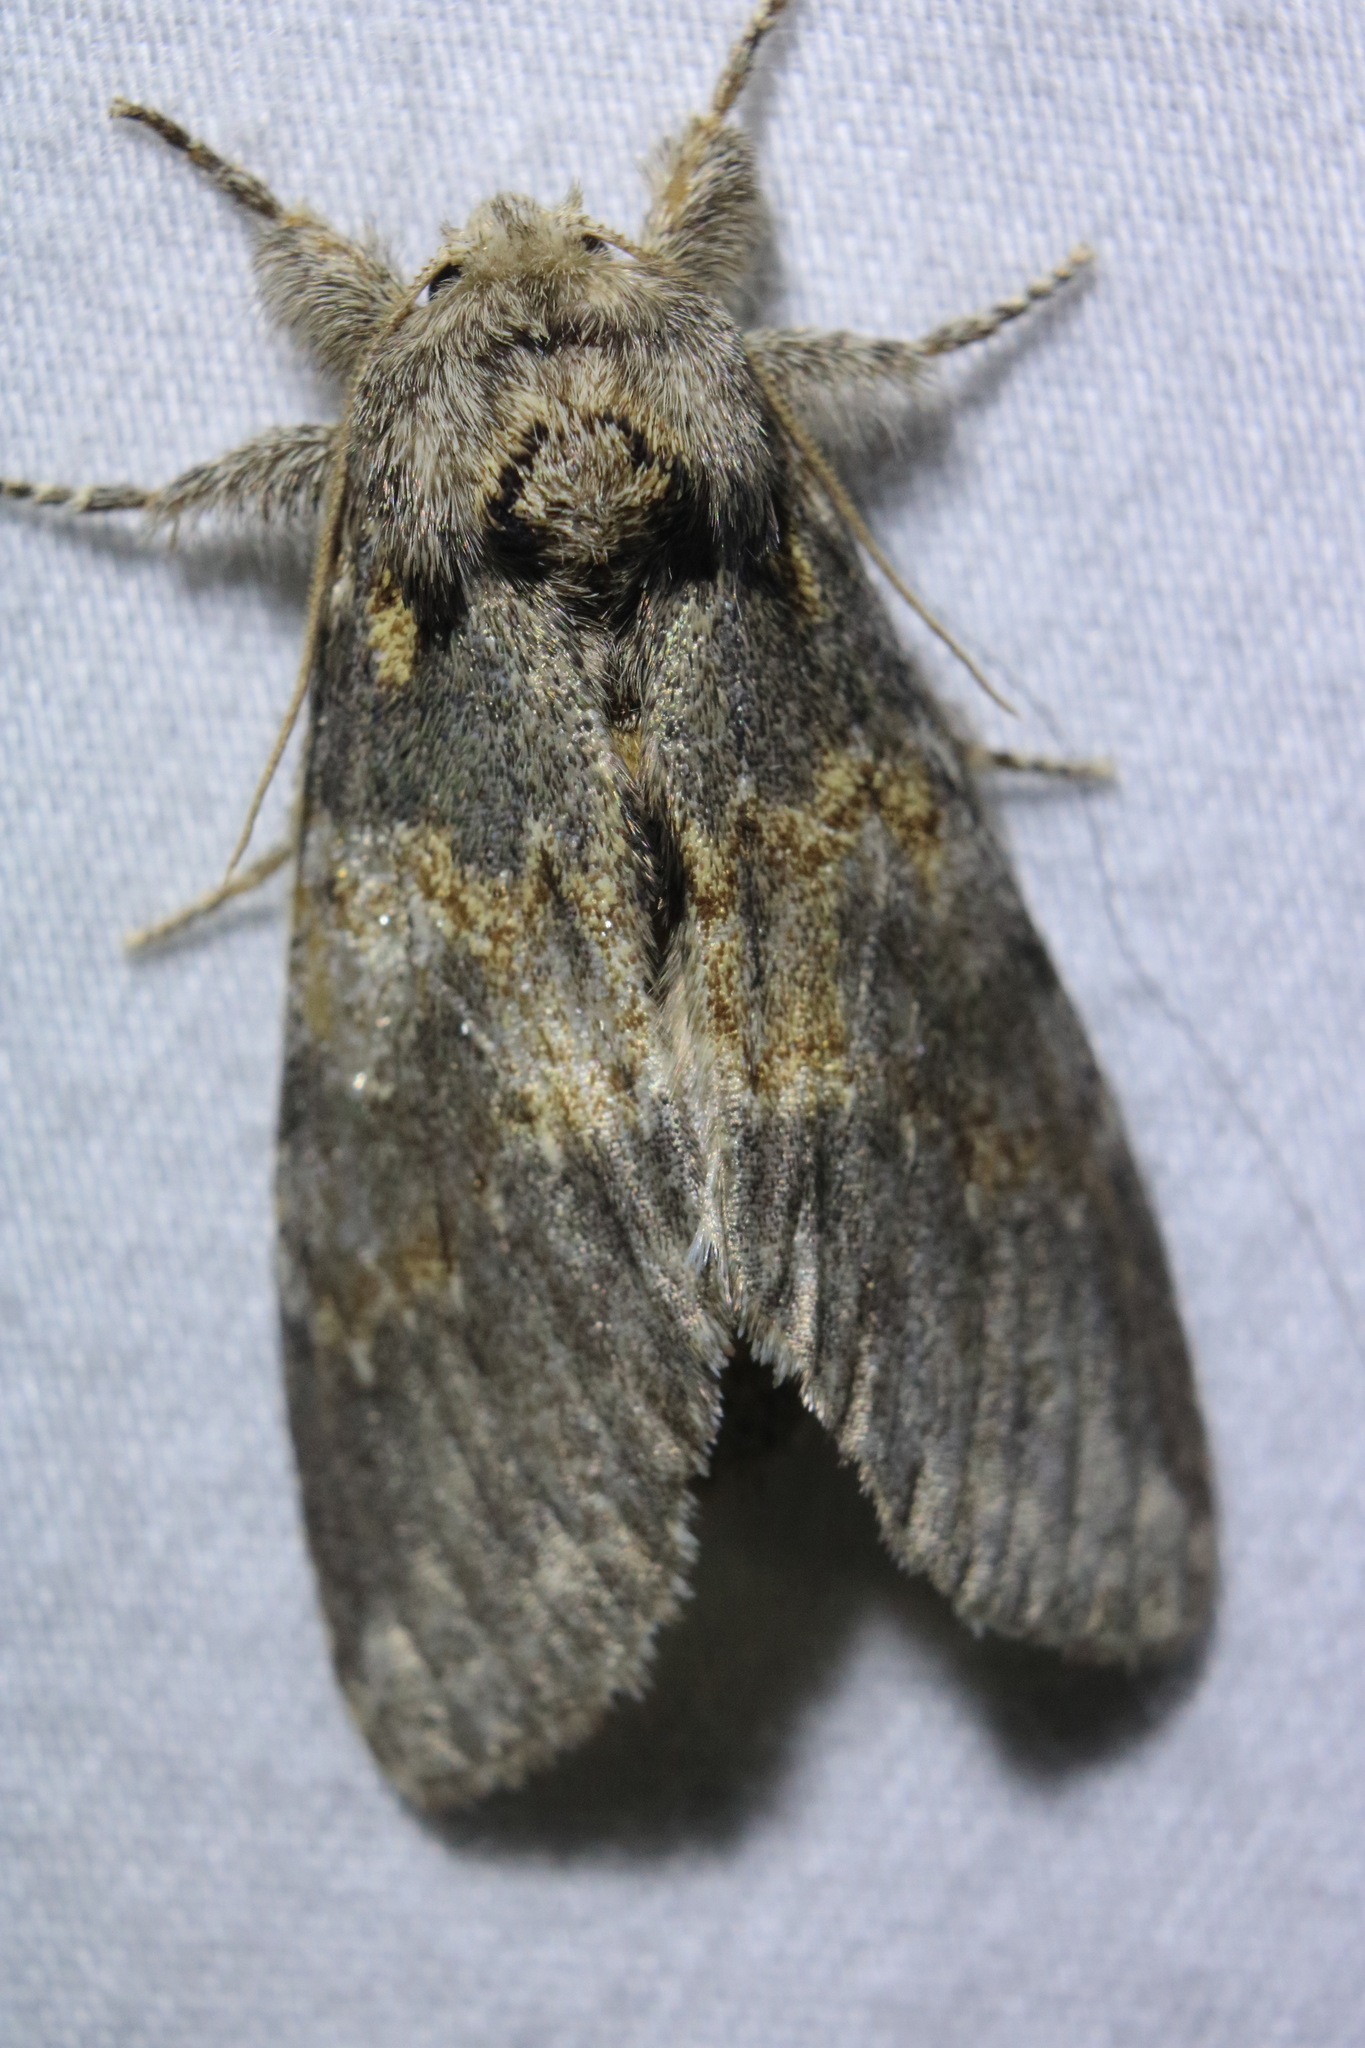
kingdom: Animalia
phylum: Arthropoda
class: Insecta
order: Lepidoptera
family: Notodontidae
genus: Peridea
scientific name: Peridea angulosa
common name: Angulose prominent
